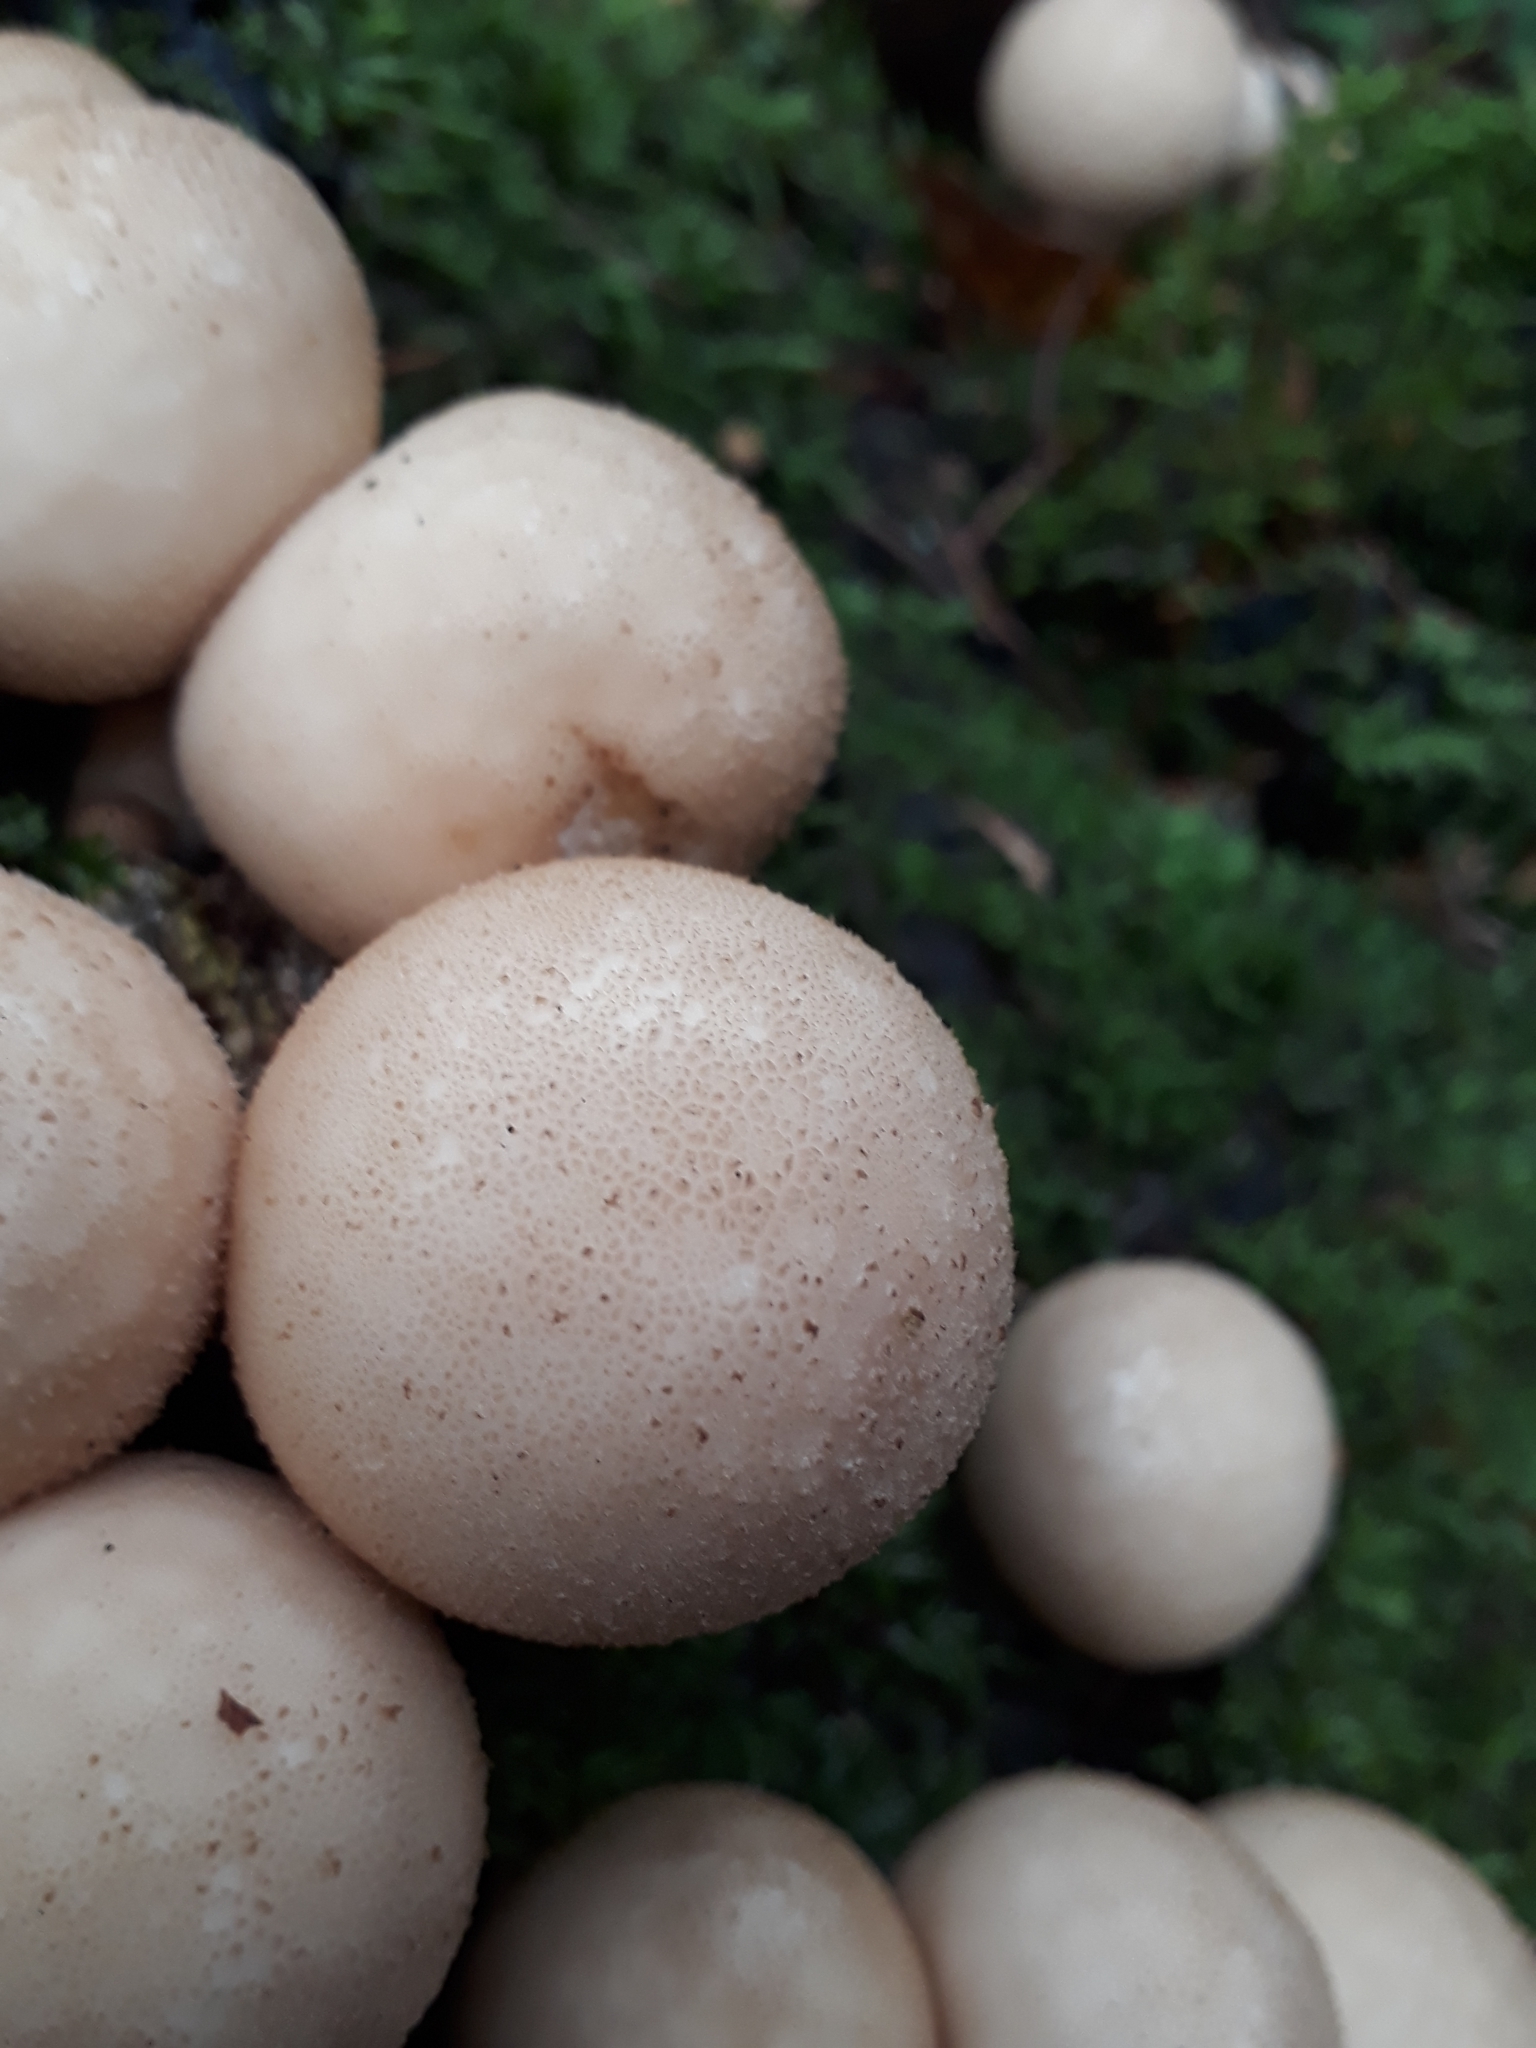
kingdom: Fungi
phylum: Basidiomycota
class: Agaricomycetes
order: Agaricales
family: Lycoperdaceae
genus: Apioperdon
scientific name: Apioperdon pyriforme
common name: Pear-shaped puffball
